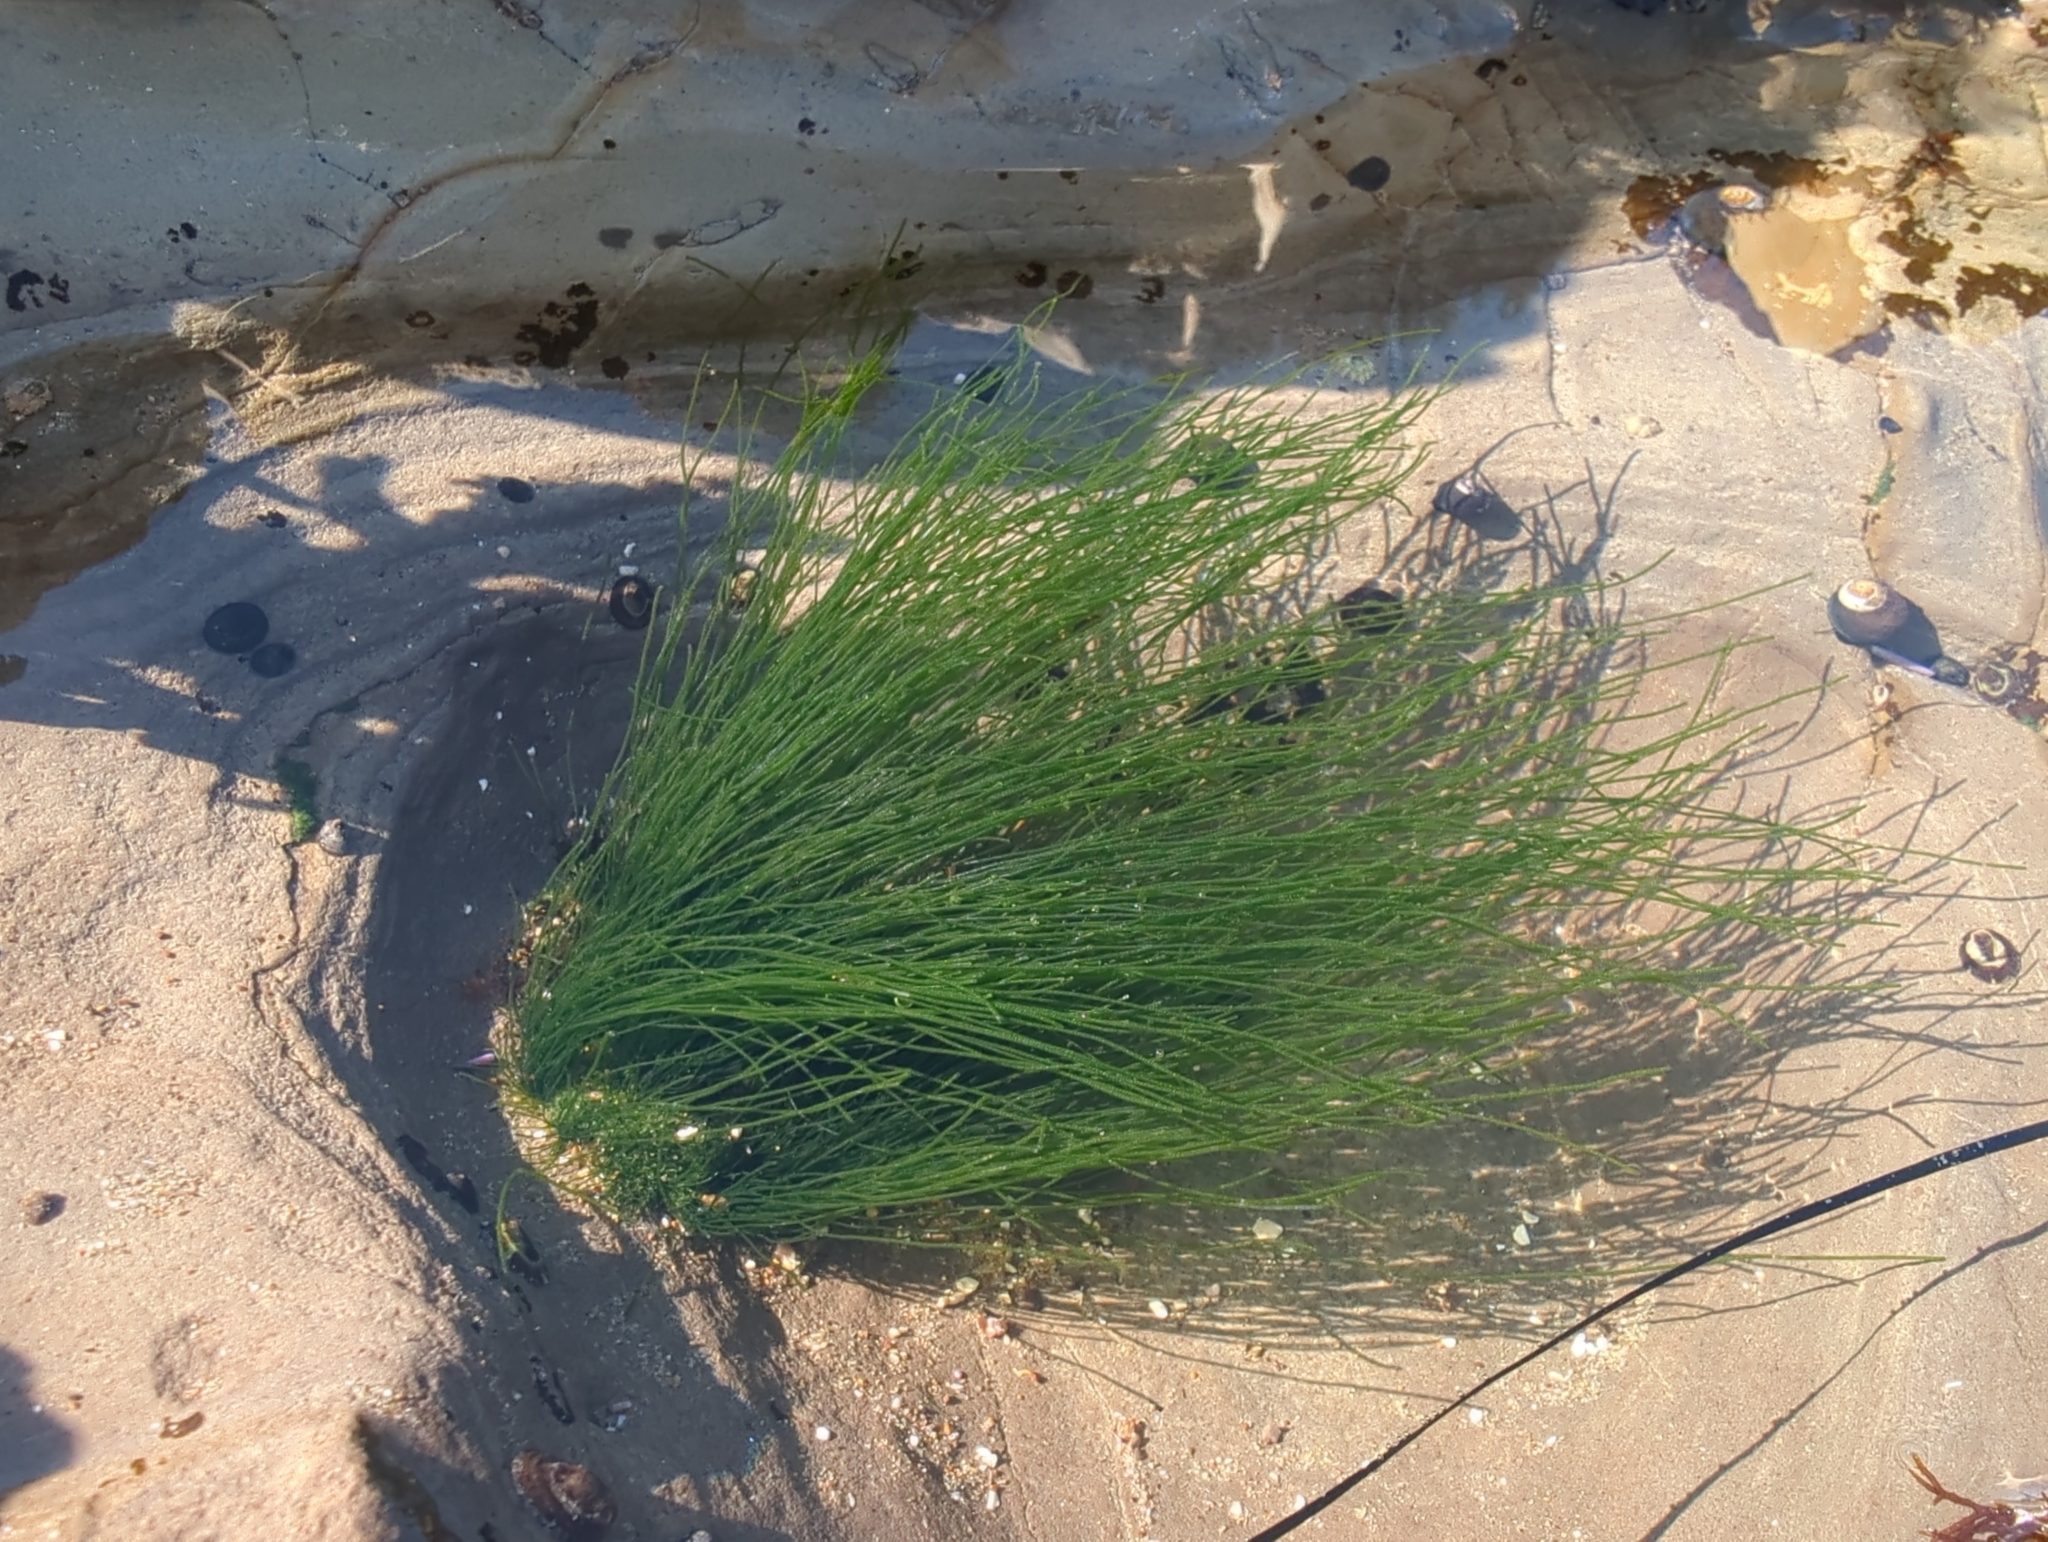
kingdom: Plantae
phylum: Tracheophyta
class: Liliopsida
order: Alismatales
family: Zosteraceae
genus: Phyllospadix
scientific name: Phyllospadix torreyi
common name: Surfgrass
